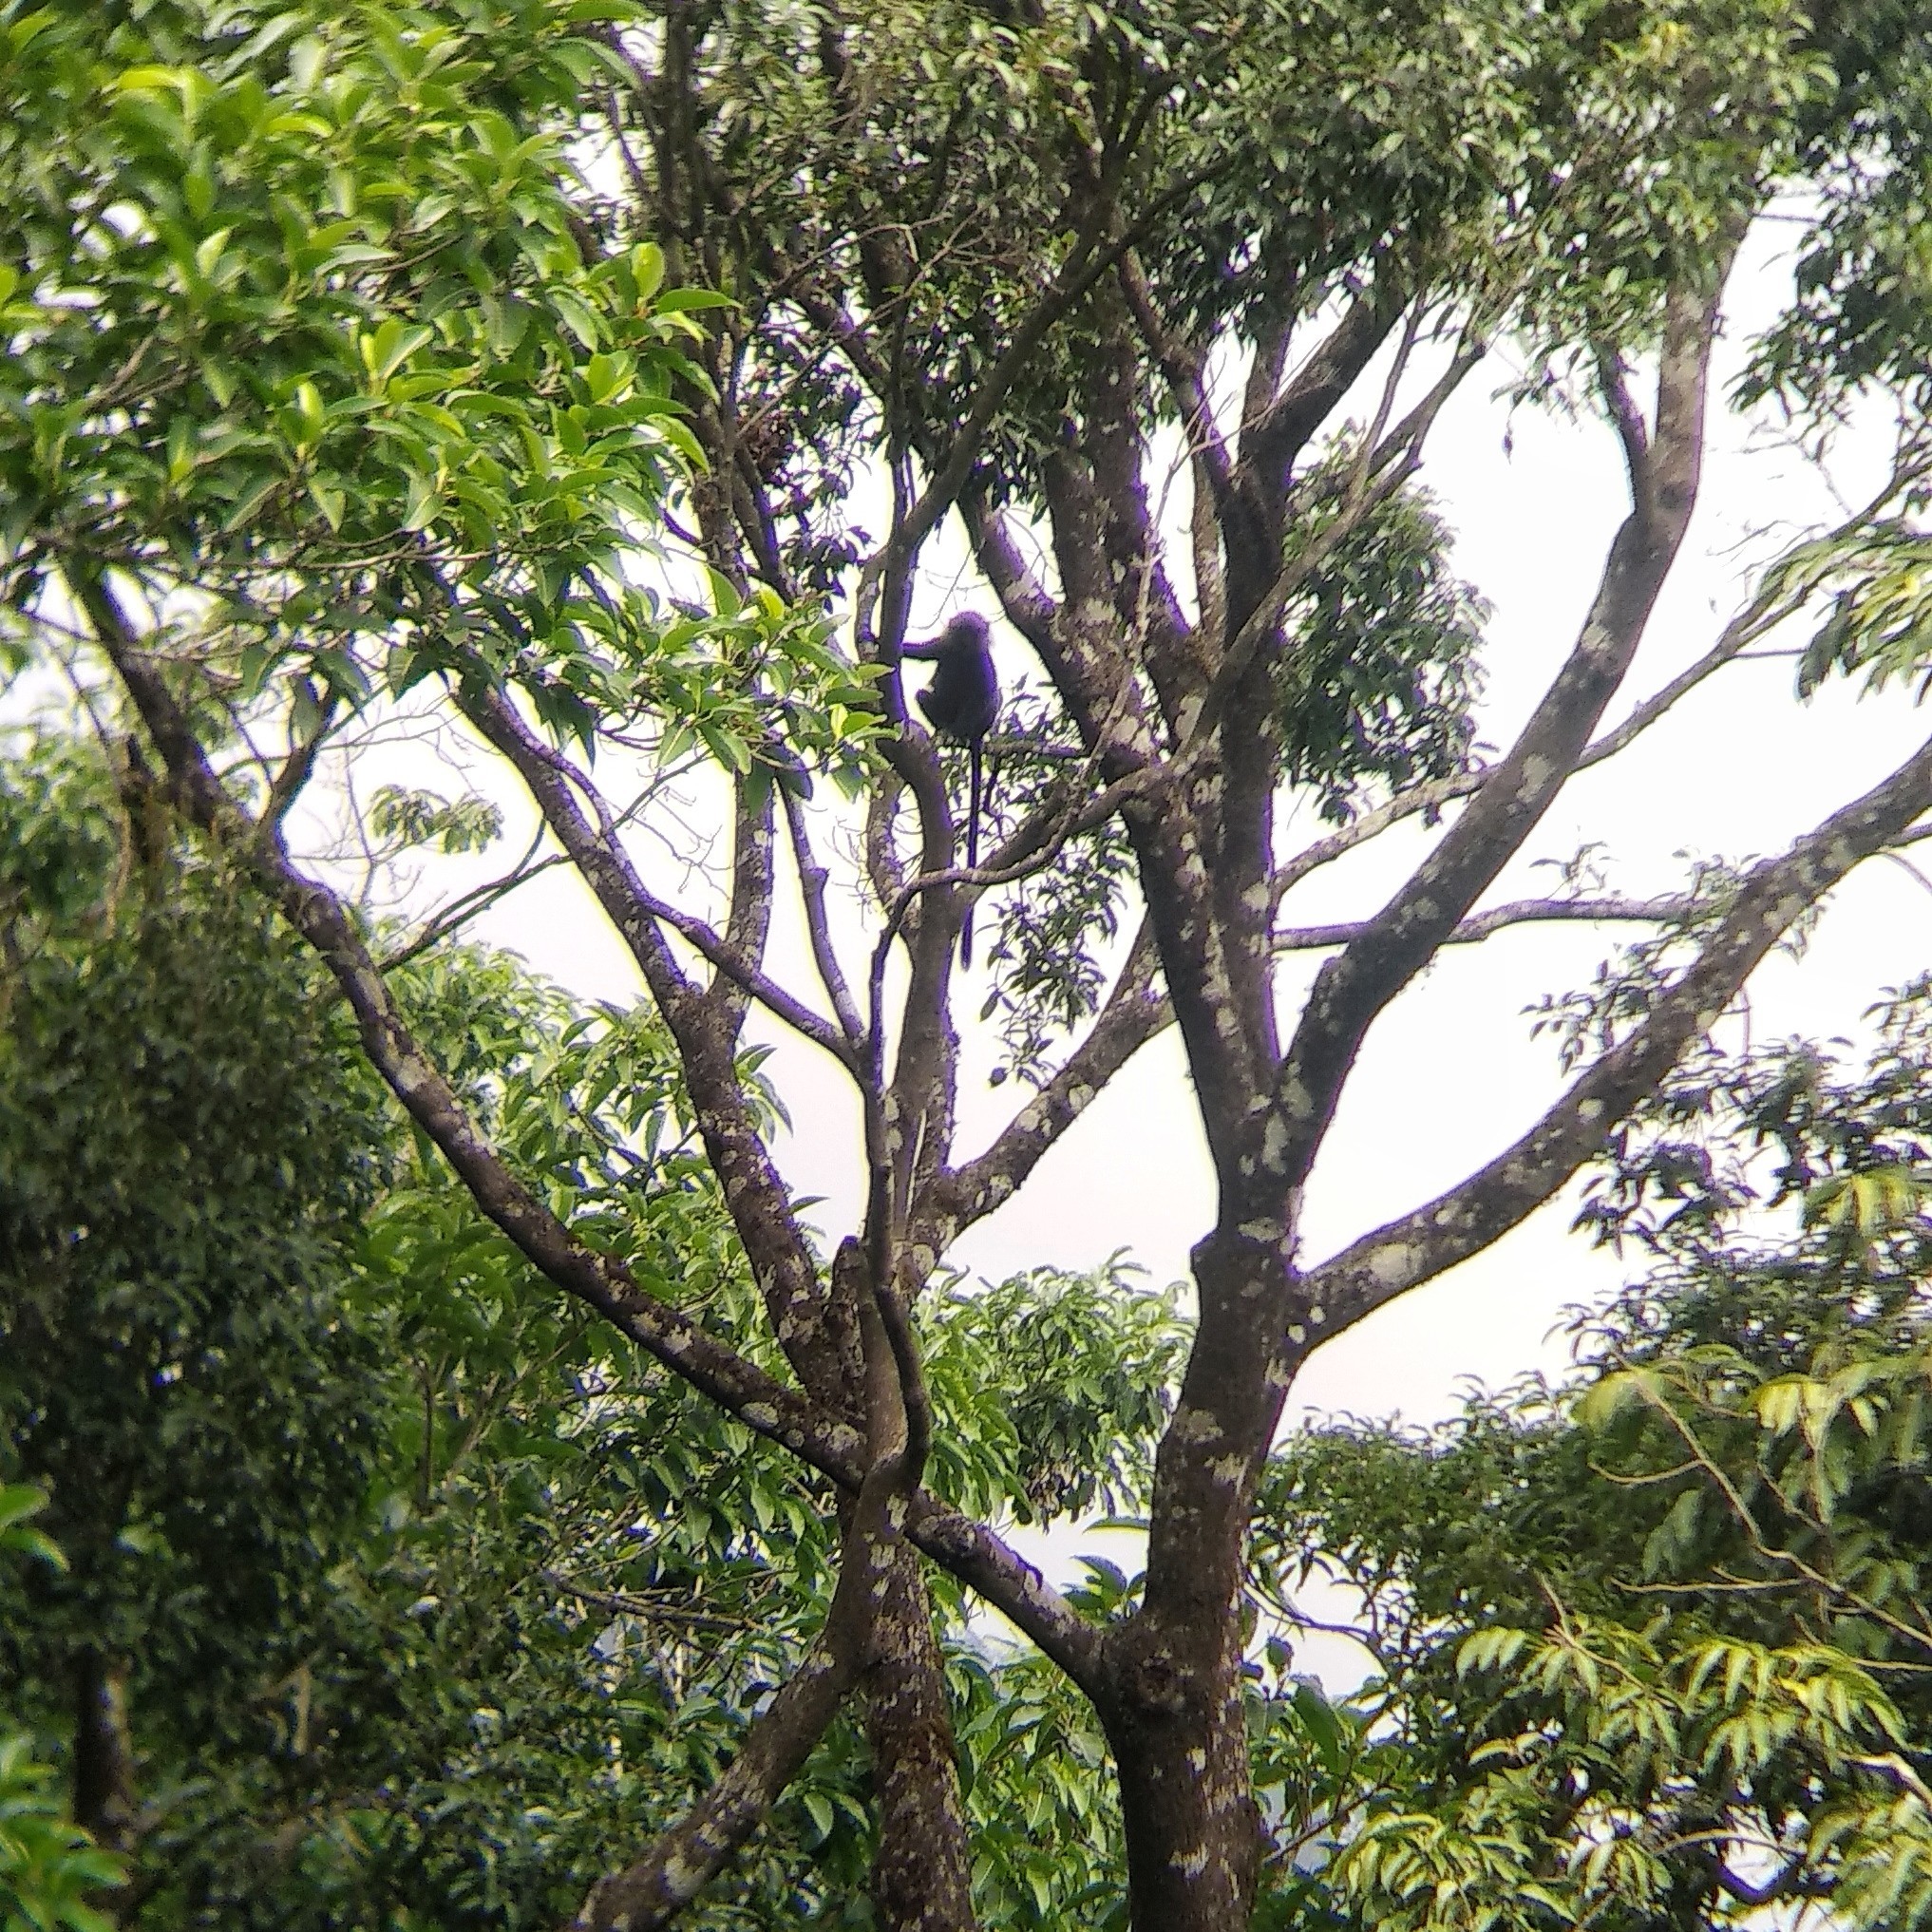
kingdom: Animalia
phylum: Chordata
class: Mammalia
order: Primates
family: Cercopithecidae
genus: Semnopithecus
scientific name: Semnopithecus johnii
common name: Nilgiri langur
